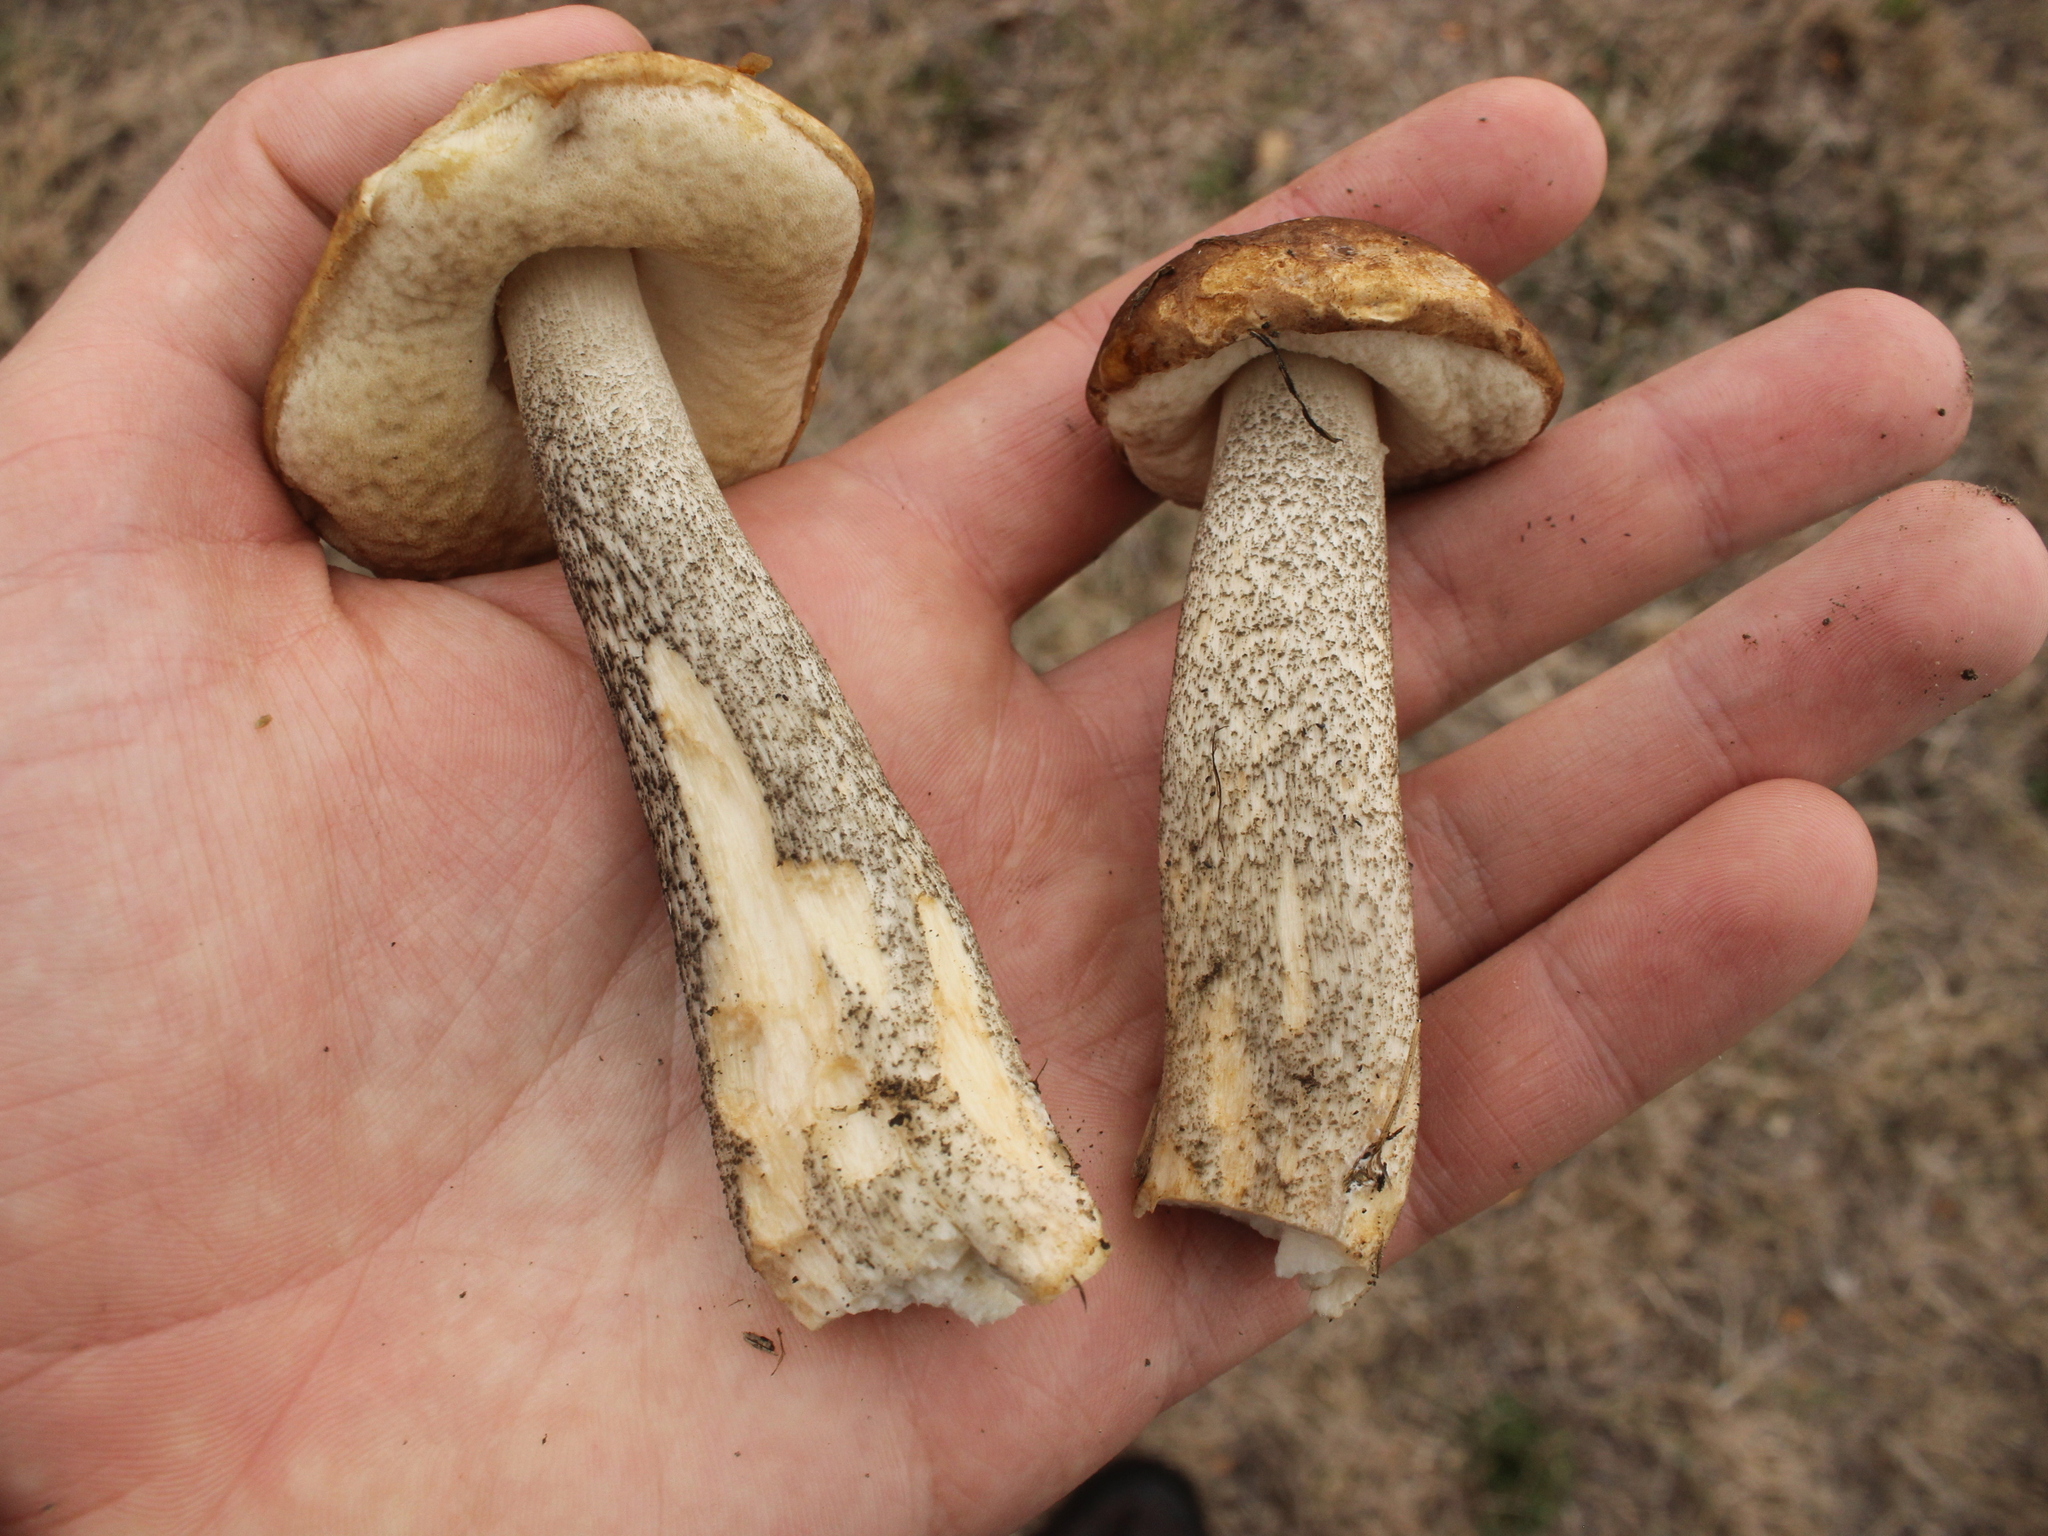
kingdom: Fungi
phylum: Basidiomycota
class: Agaricomycetes
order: Boletales
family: Boletaceae
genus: Leccinum
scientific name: Leccinum scabrum
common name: Blushing bolete
